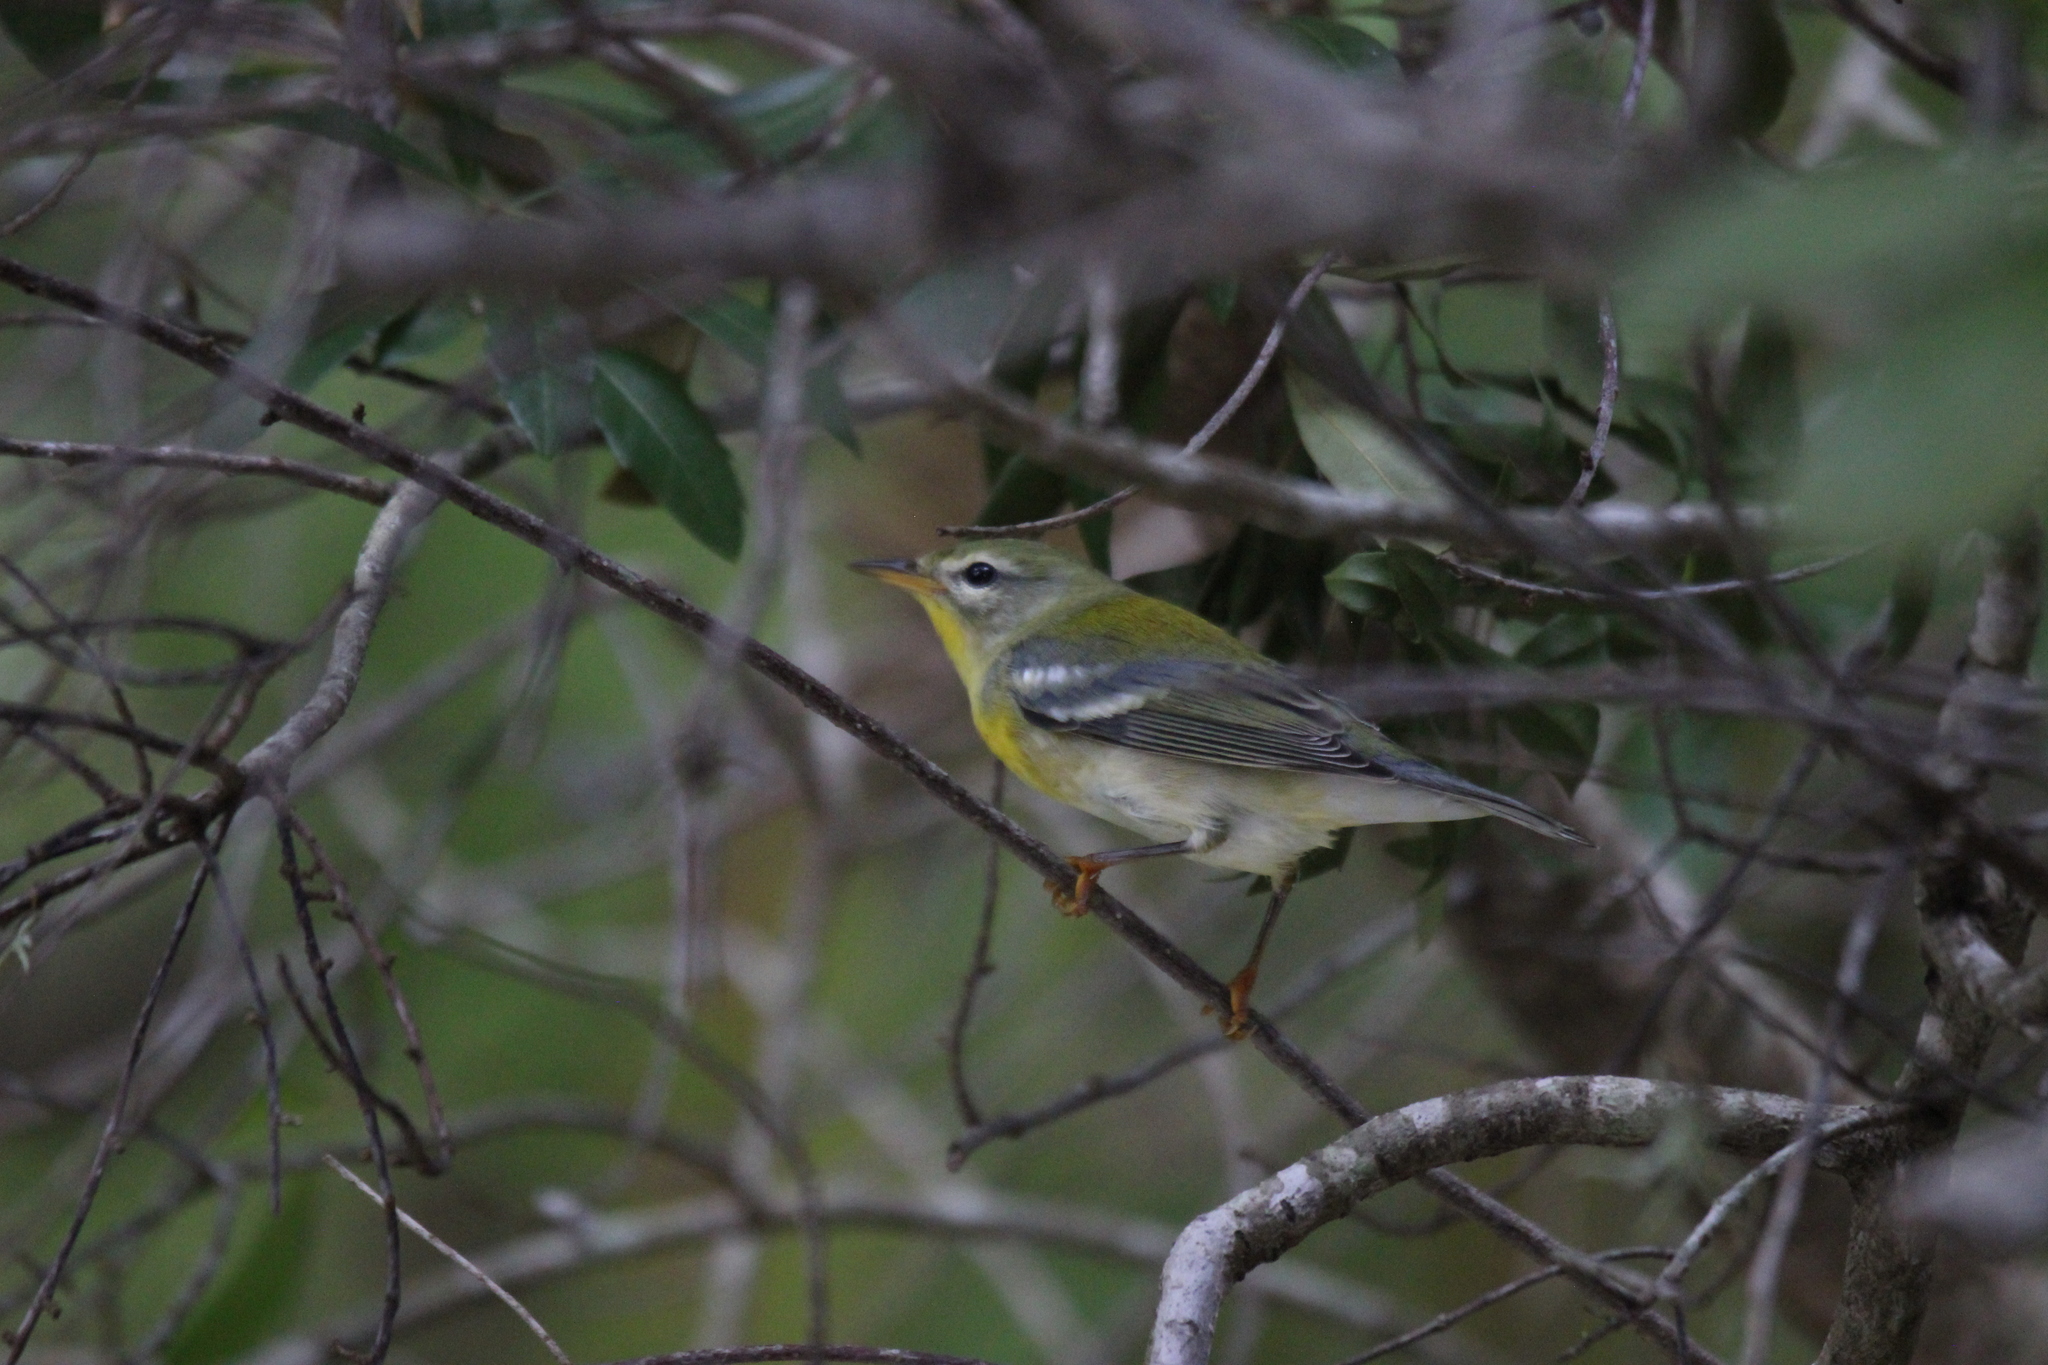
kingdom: Animalia
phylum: Chordata
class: Aves
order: Passeriformes
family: Parulidae
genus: Setophaga
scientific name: Setophaga americana
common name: Northern parula
